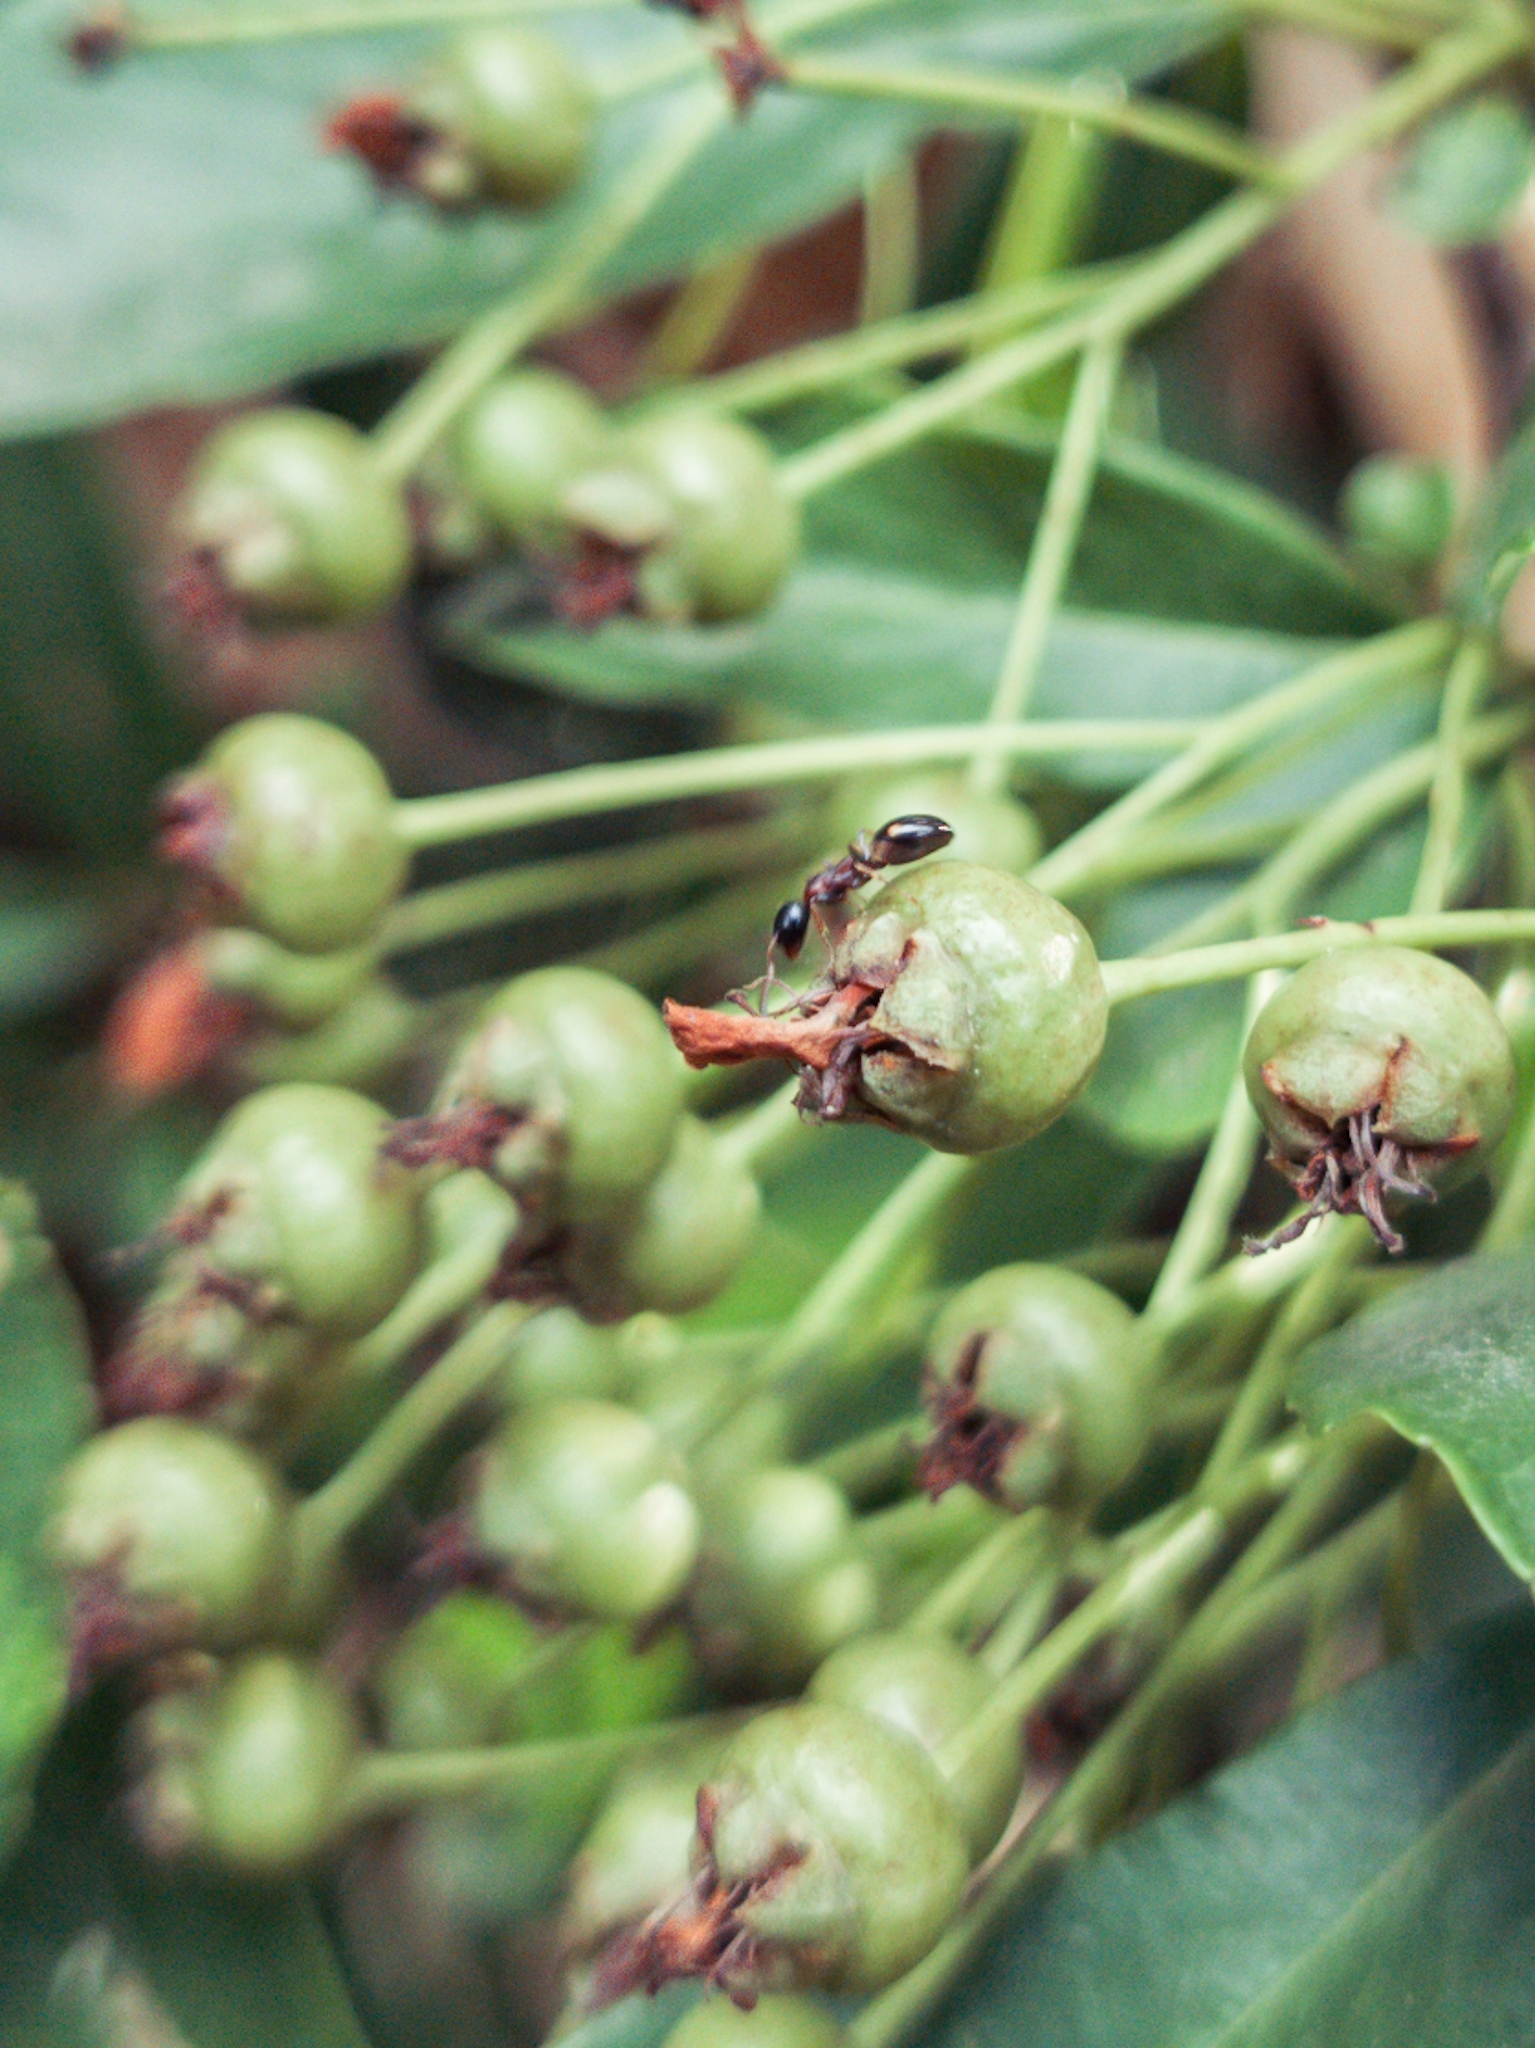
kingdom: Animalia
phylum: Arthropoda
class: Insecta
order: Hymenoptera
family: Formicidae
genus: Dolichoderus
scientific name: Dolichoderus quadripunctatus
